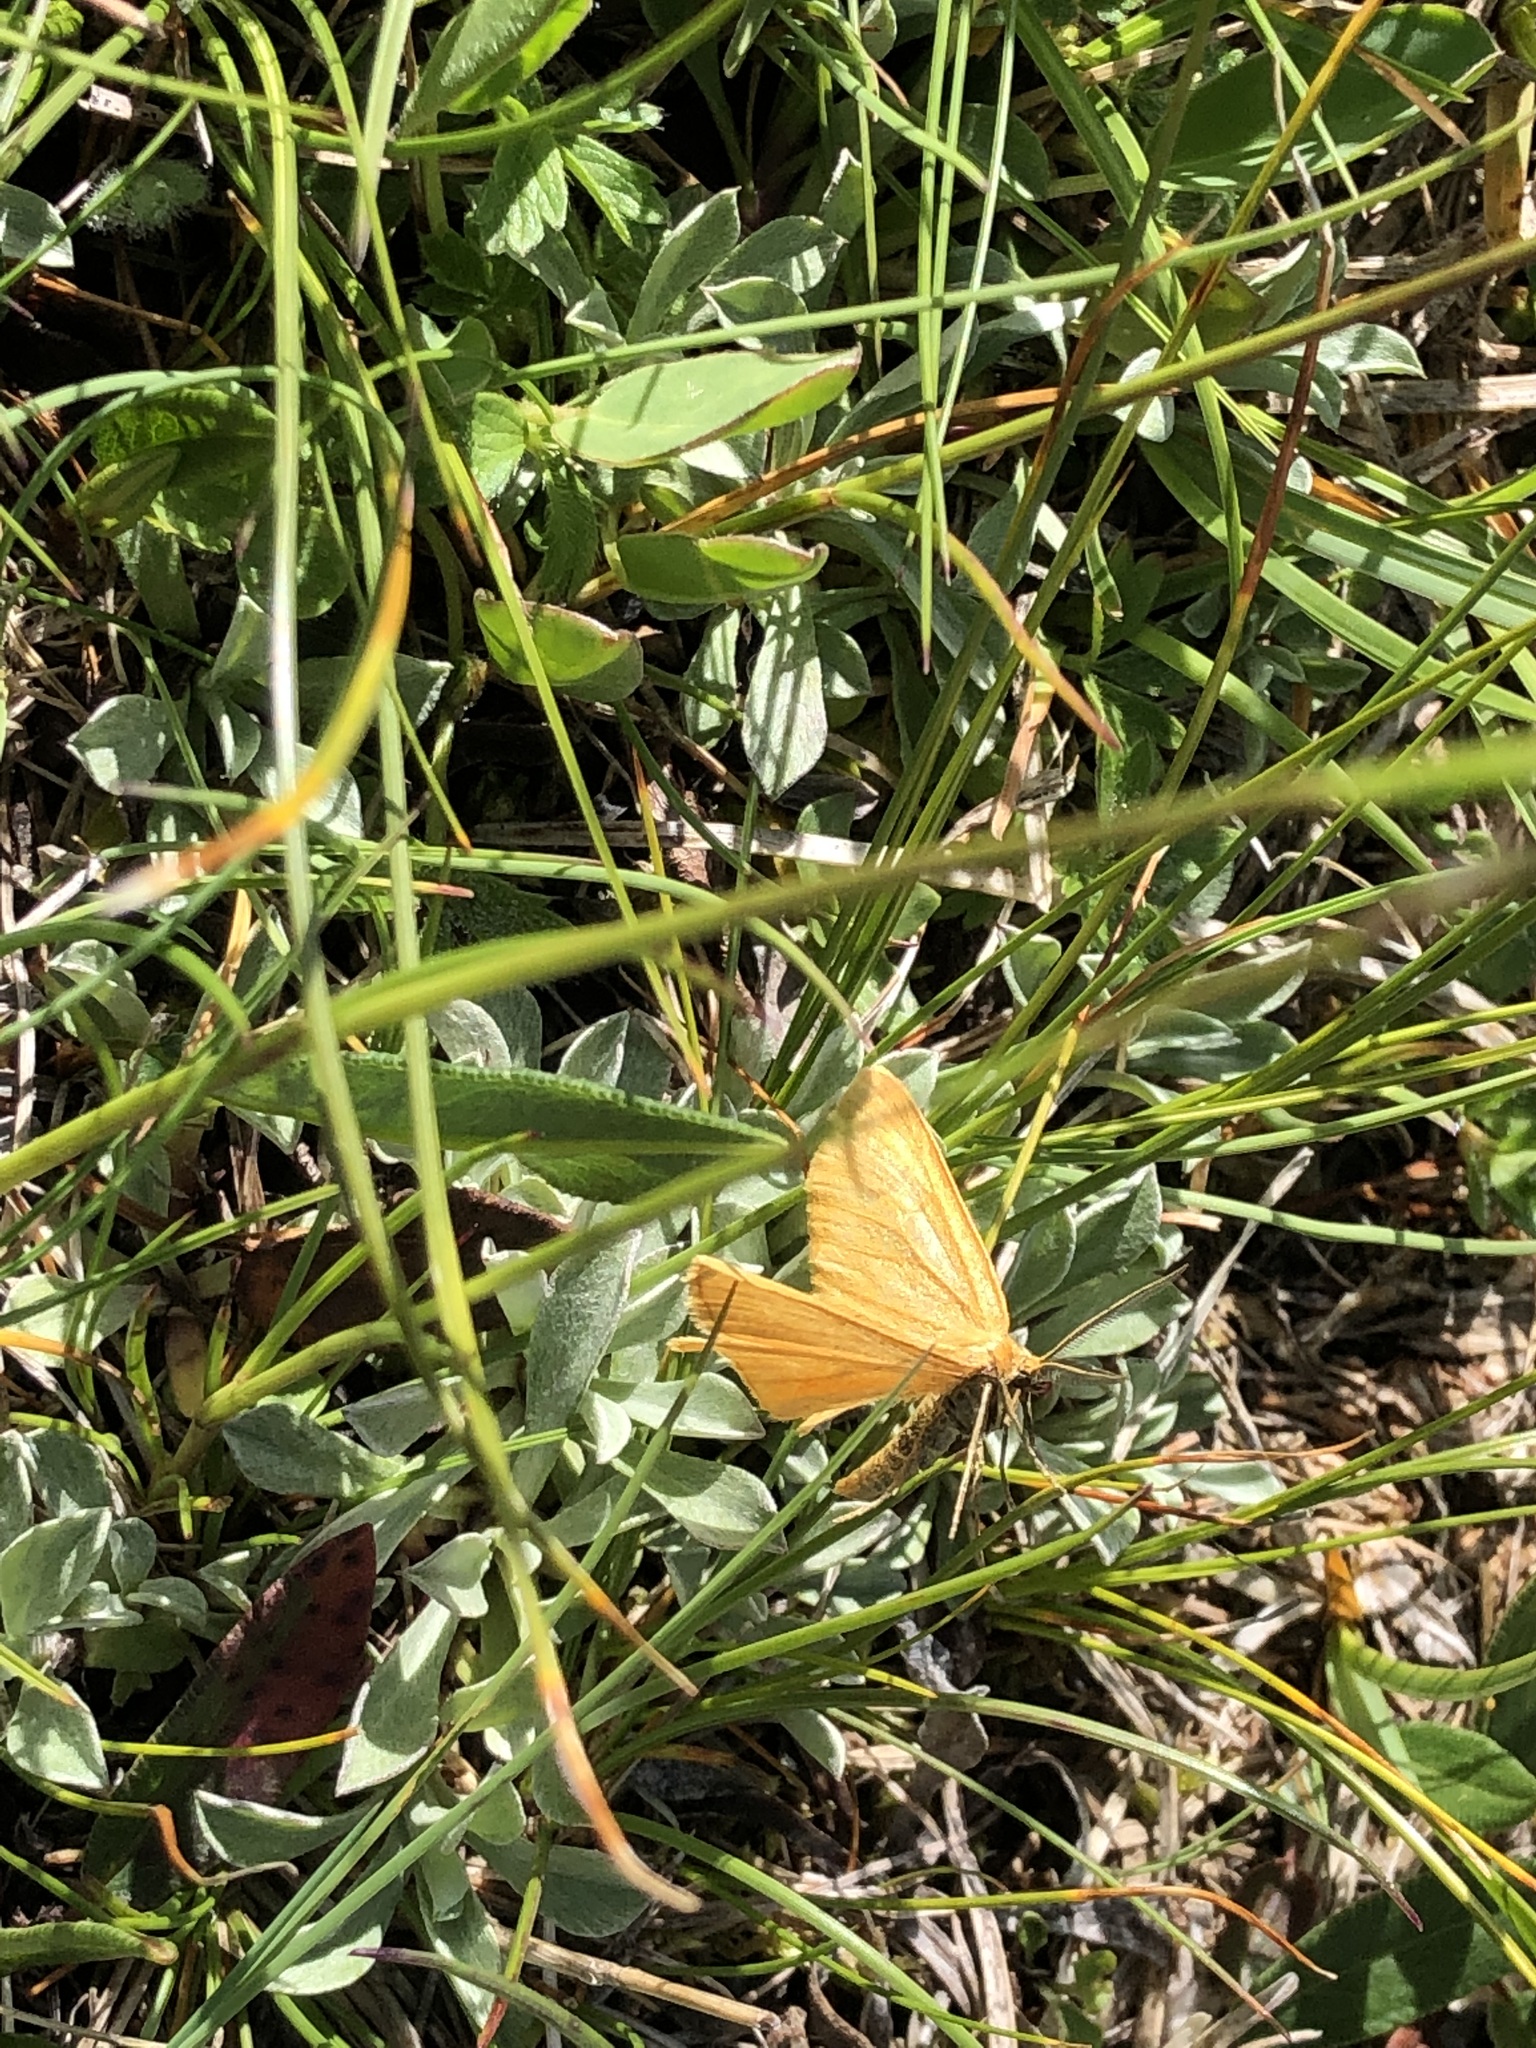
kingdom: Animalia
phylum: Arthropoda
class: Insecta
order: Lepidoptera
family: Geometridae
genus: Crocota
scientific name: Crocota tinctaria
